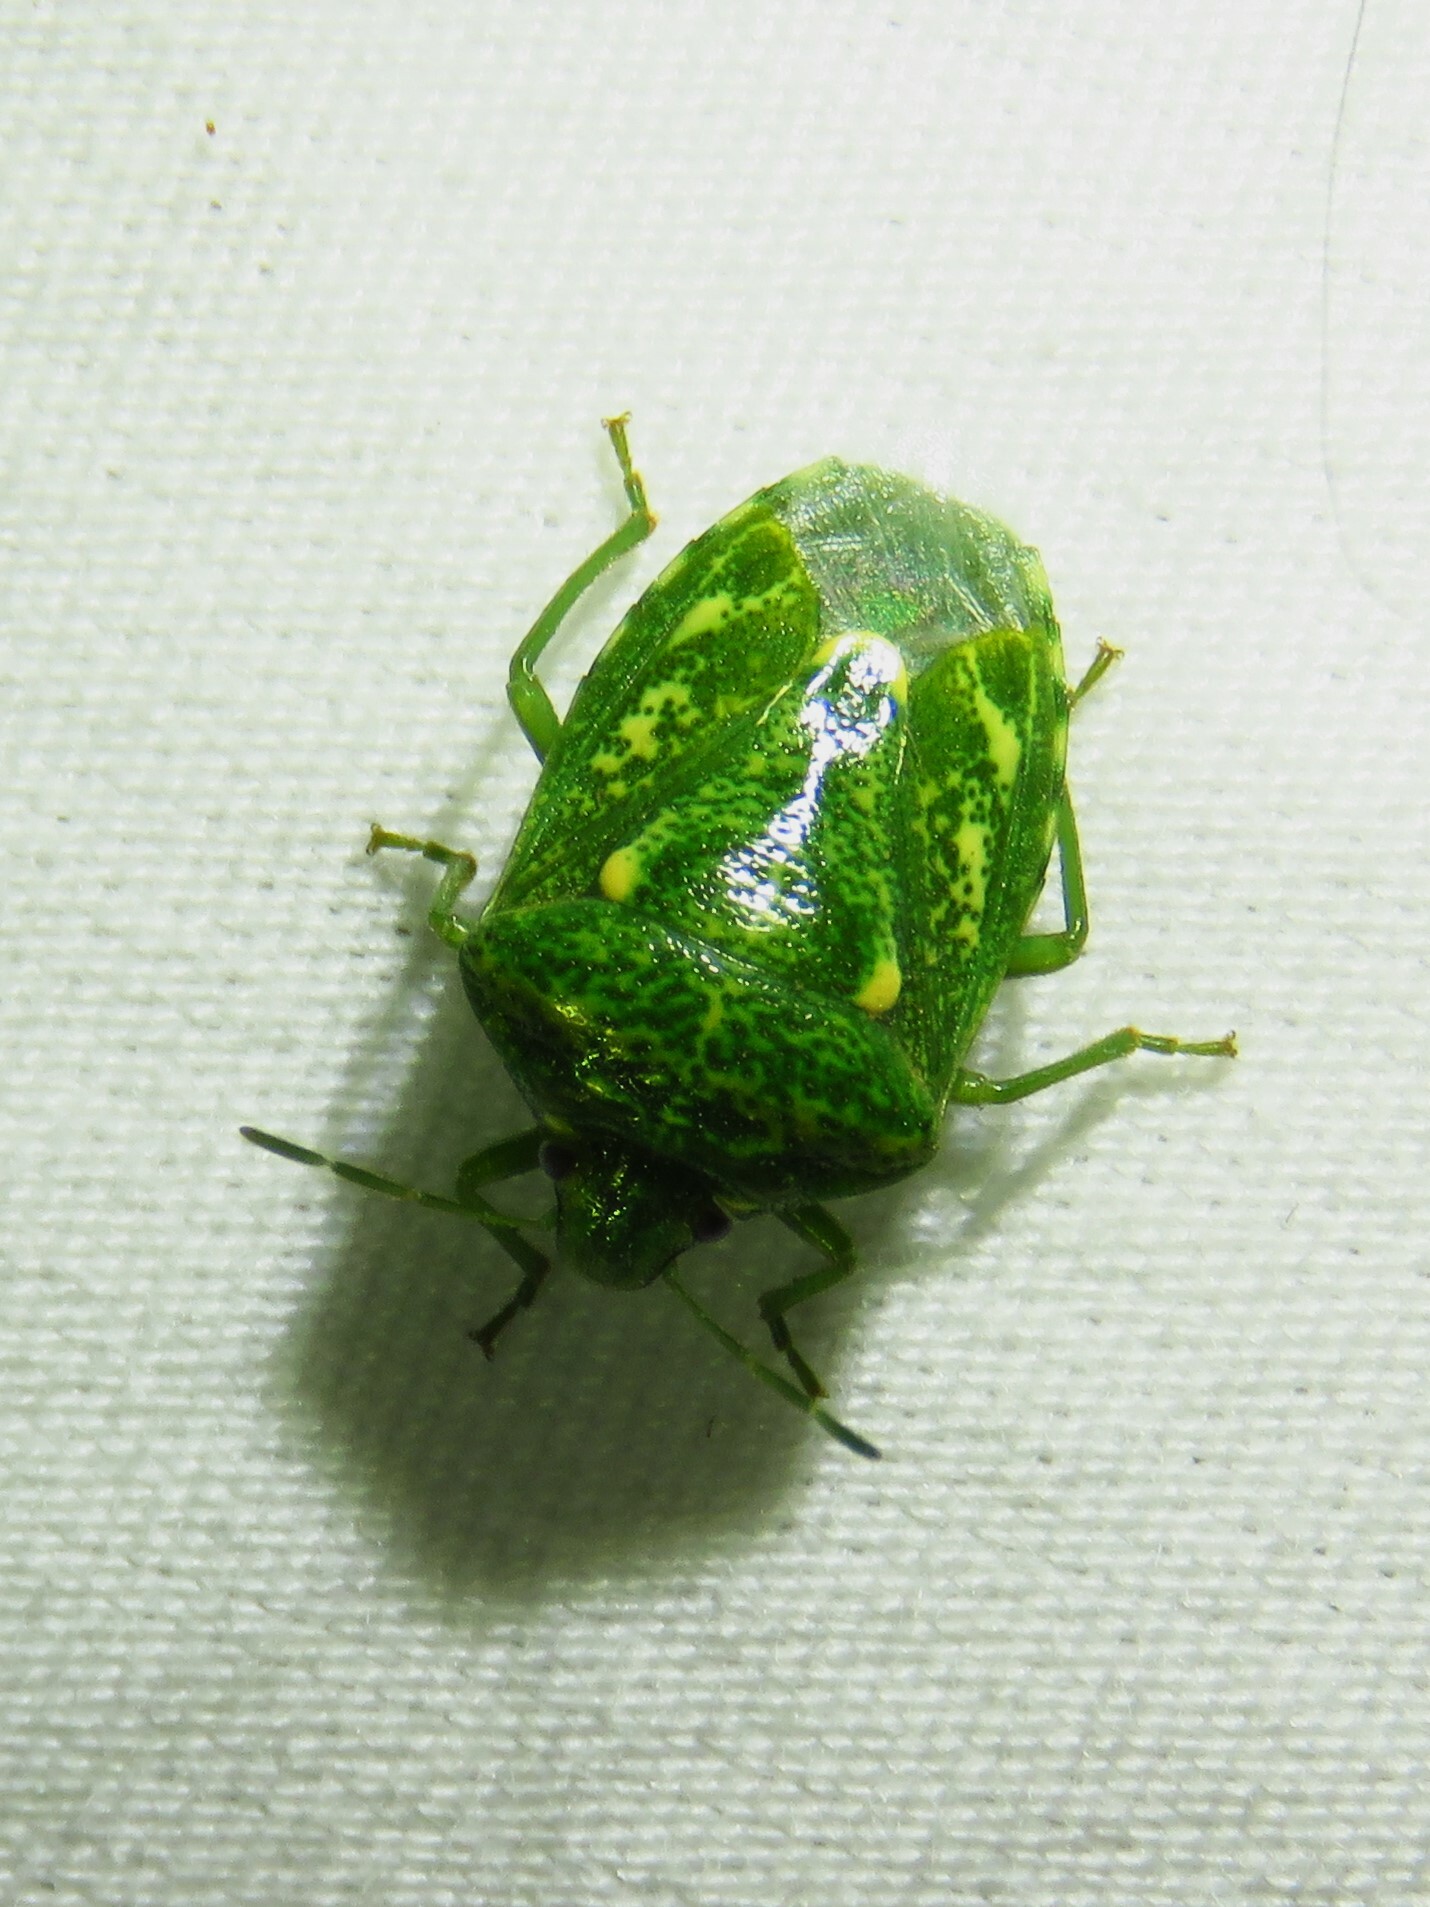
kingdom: Animalia
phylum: Arthropoda
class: Insecta
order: Hemiptera
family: Pentatomidae
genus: Banasa
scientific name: Banasa euchlora
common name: Cedar berry bug
